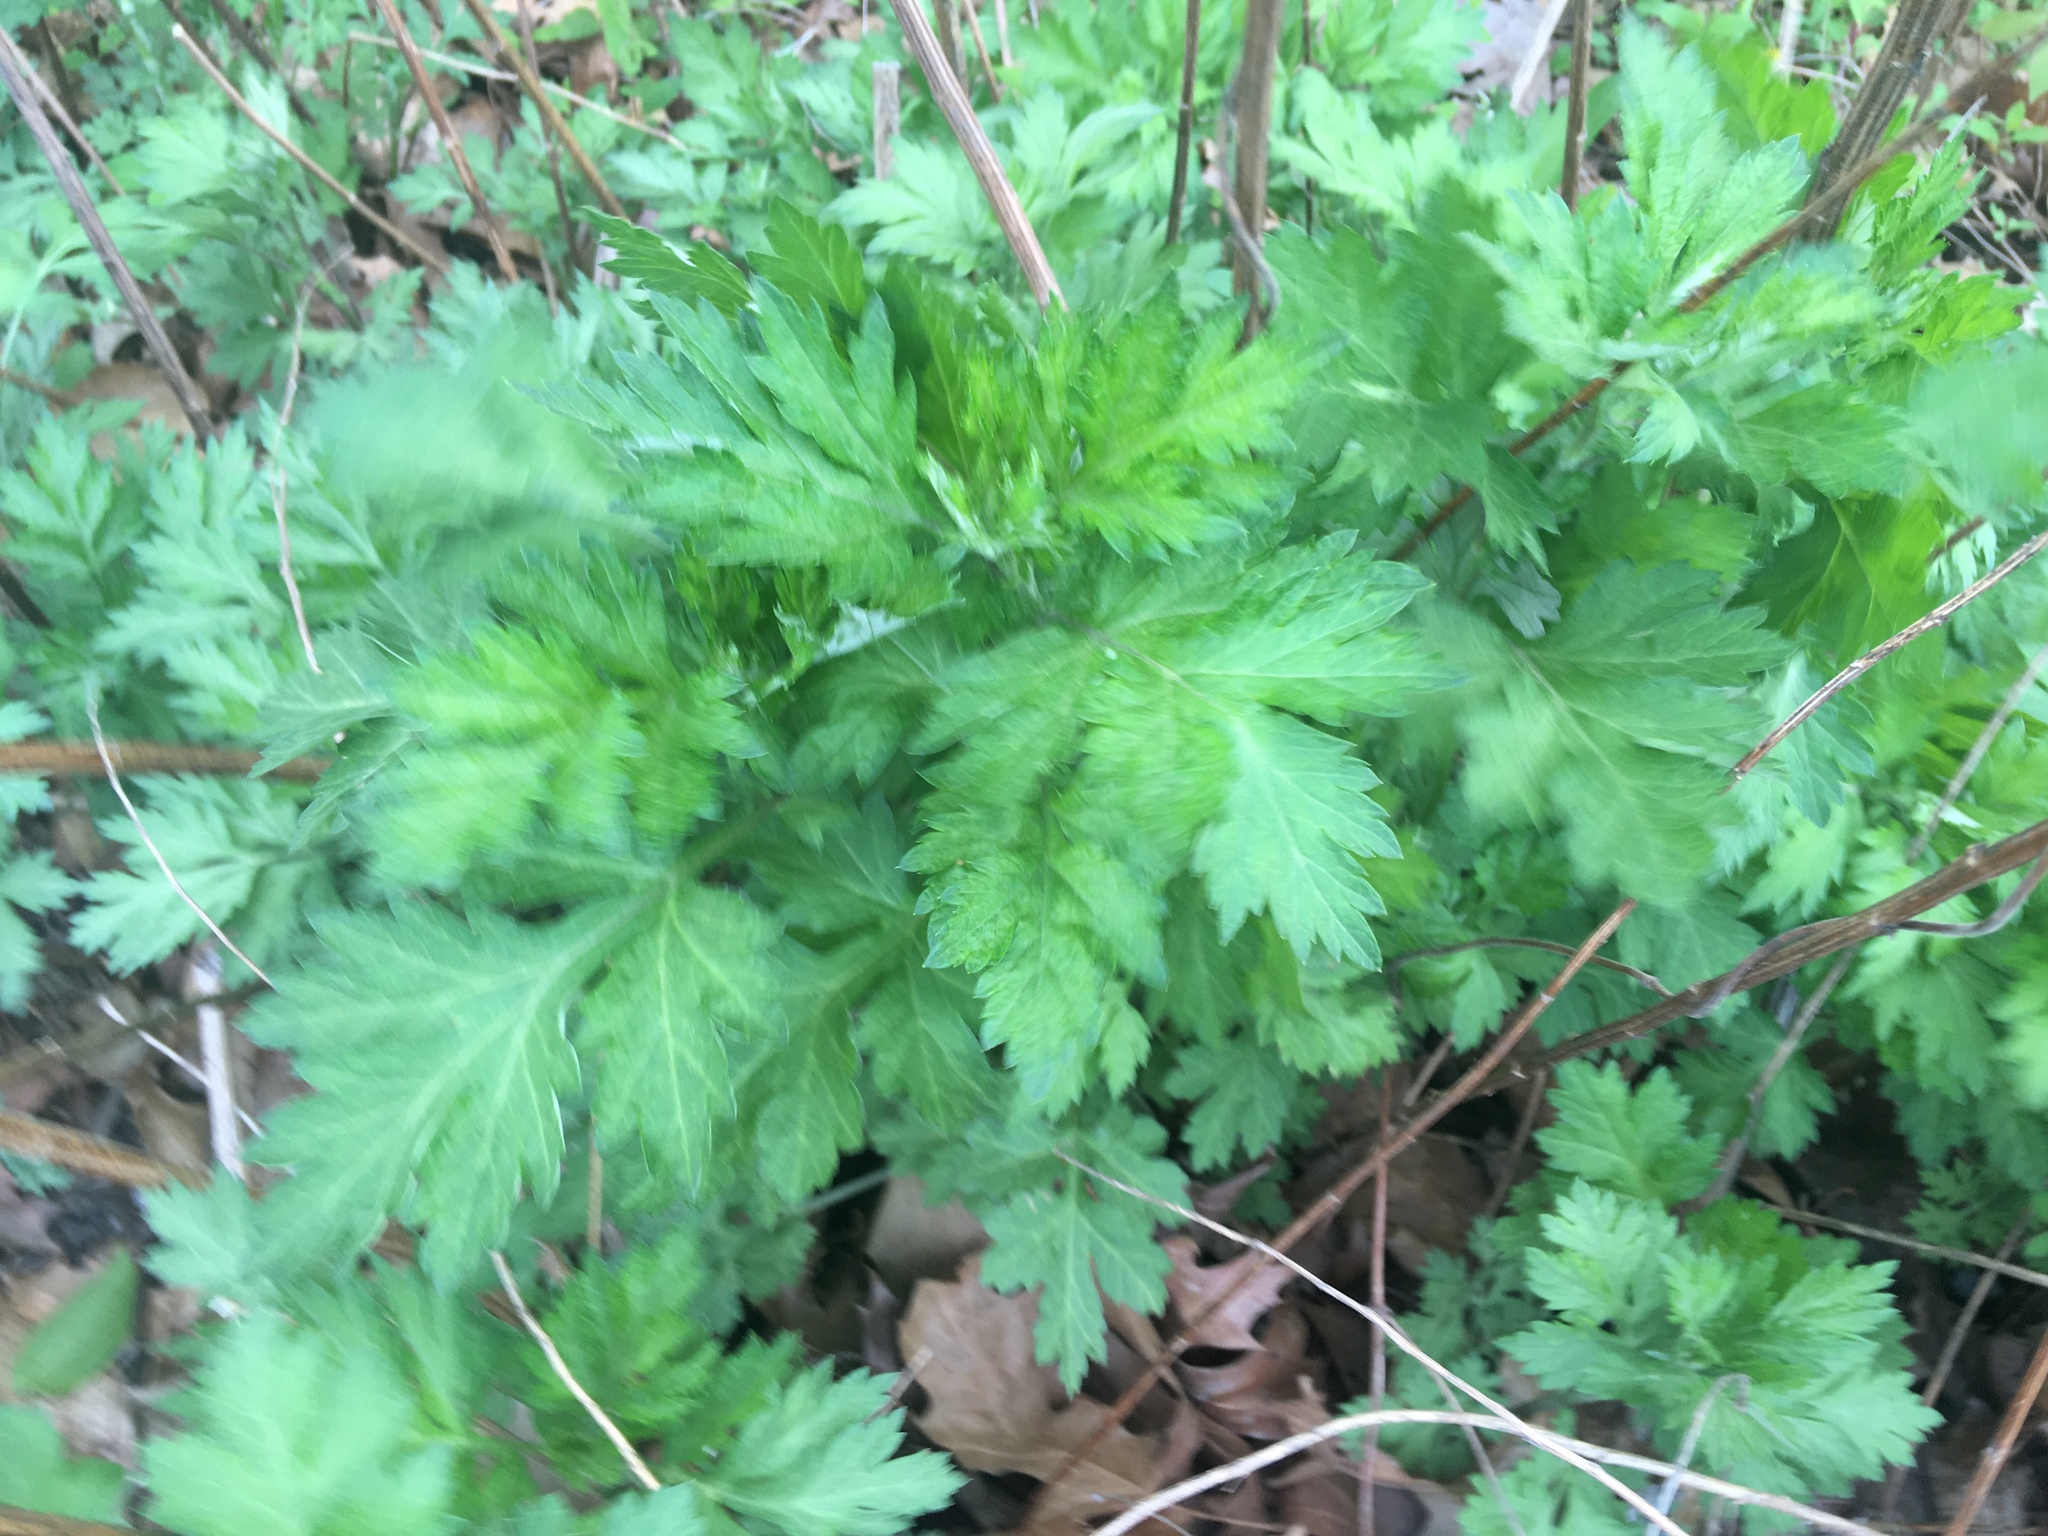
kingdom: Plantae
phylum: Tracheophyta
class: Magnoliopsida
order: Asterales
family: Asteraceae
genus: Artemisia
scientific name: Artemisia vulgaris
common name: Mugwort
